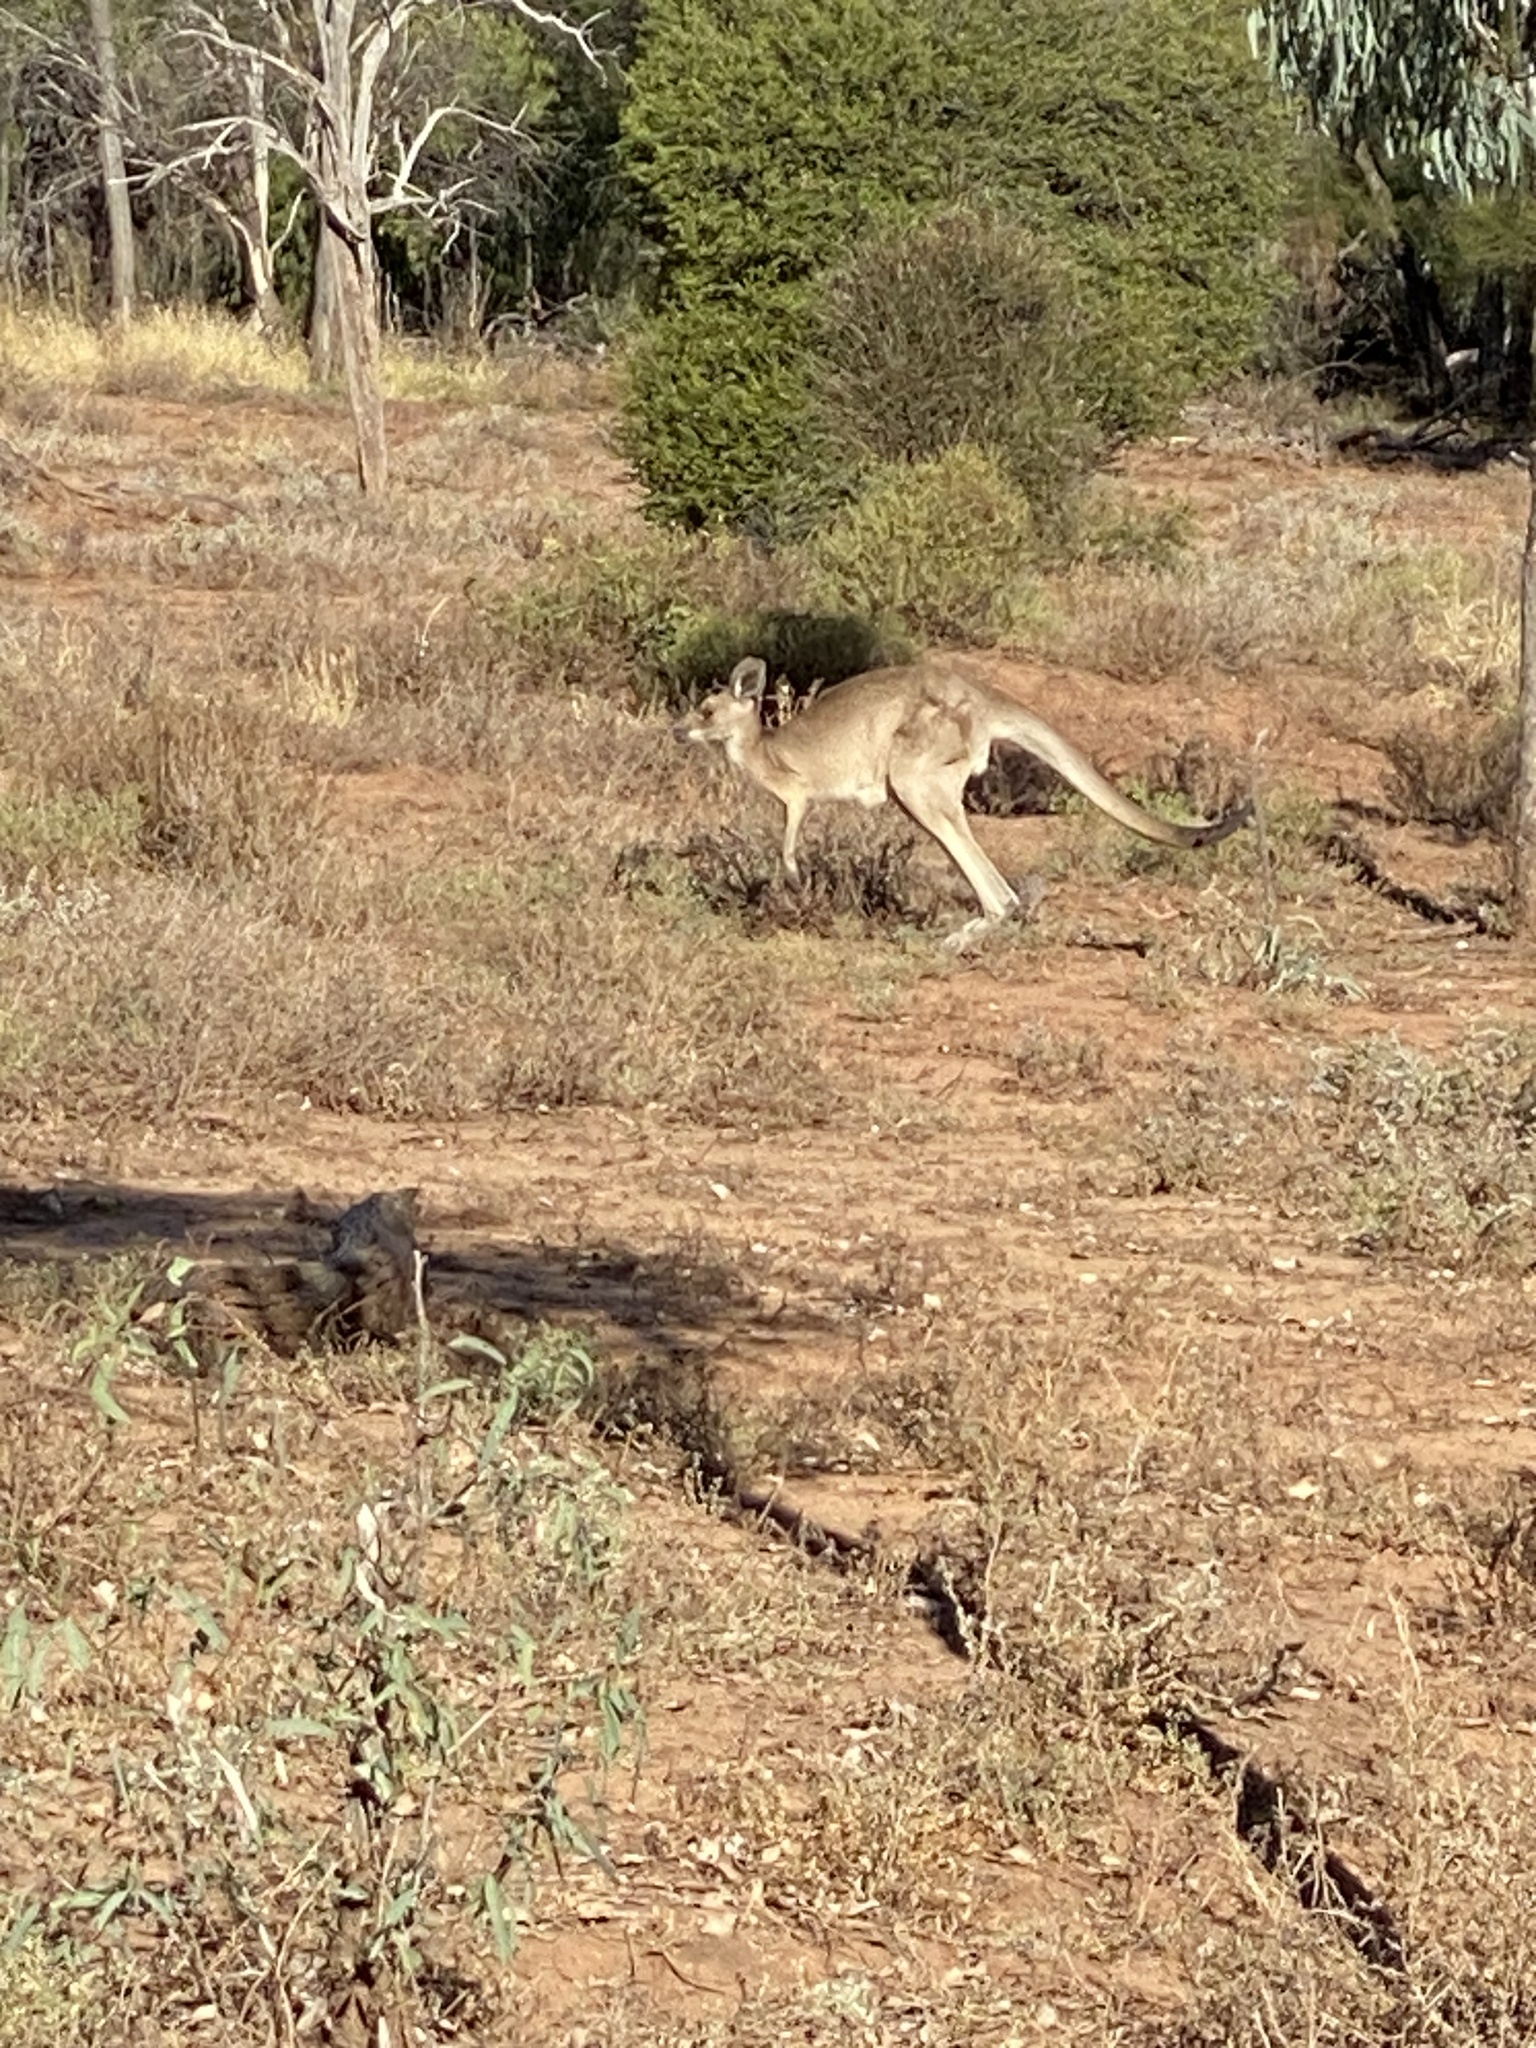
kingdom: Animalia
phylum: Chordata
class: Mammalia
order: Diprotodontia
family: Macropodidae
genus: Macropus
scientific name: Macropus giganteus
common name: Eastern grey kangaroo
